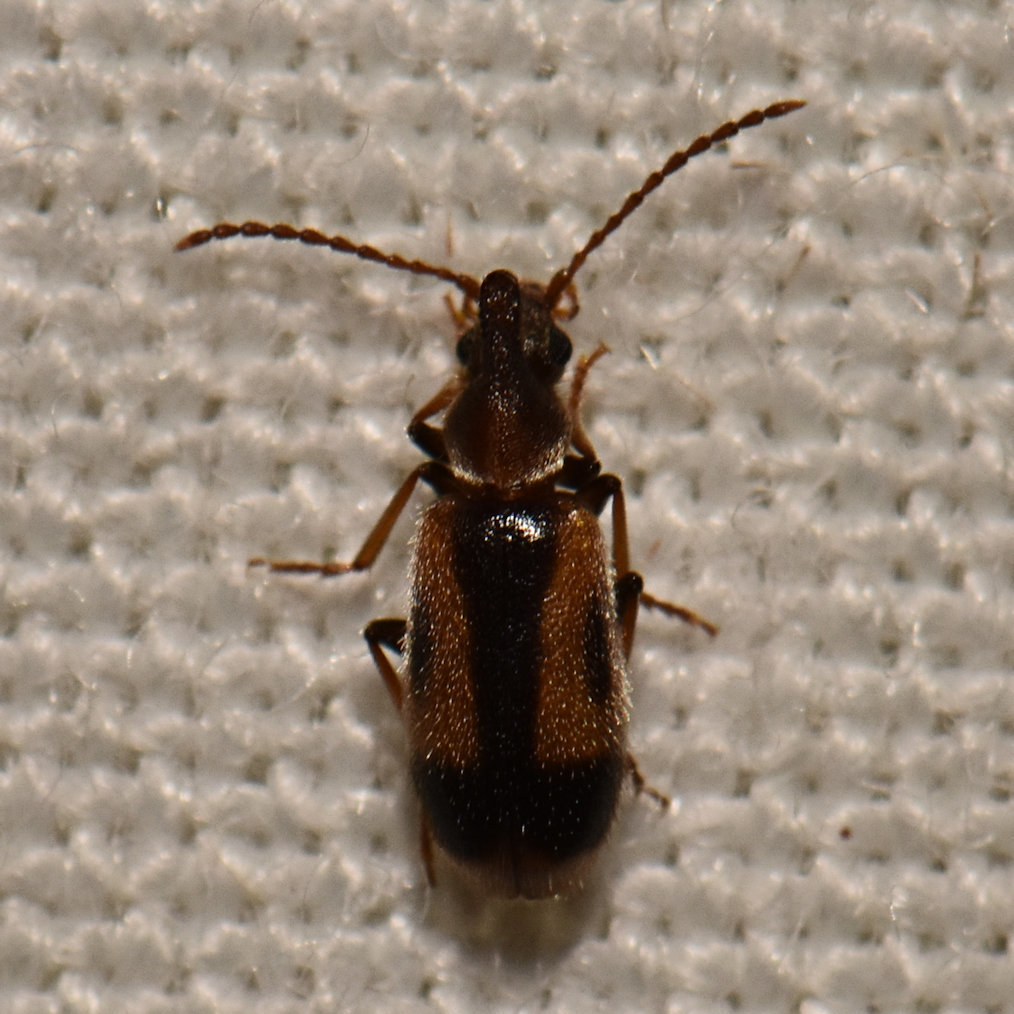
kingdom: Animalia
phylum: Arthropoda
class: Insecta
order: Coleoptera
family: Anthicidae
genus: Notoxus
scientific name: Notoxus anchora
